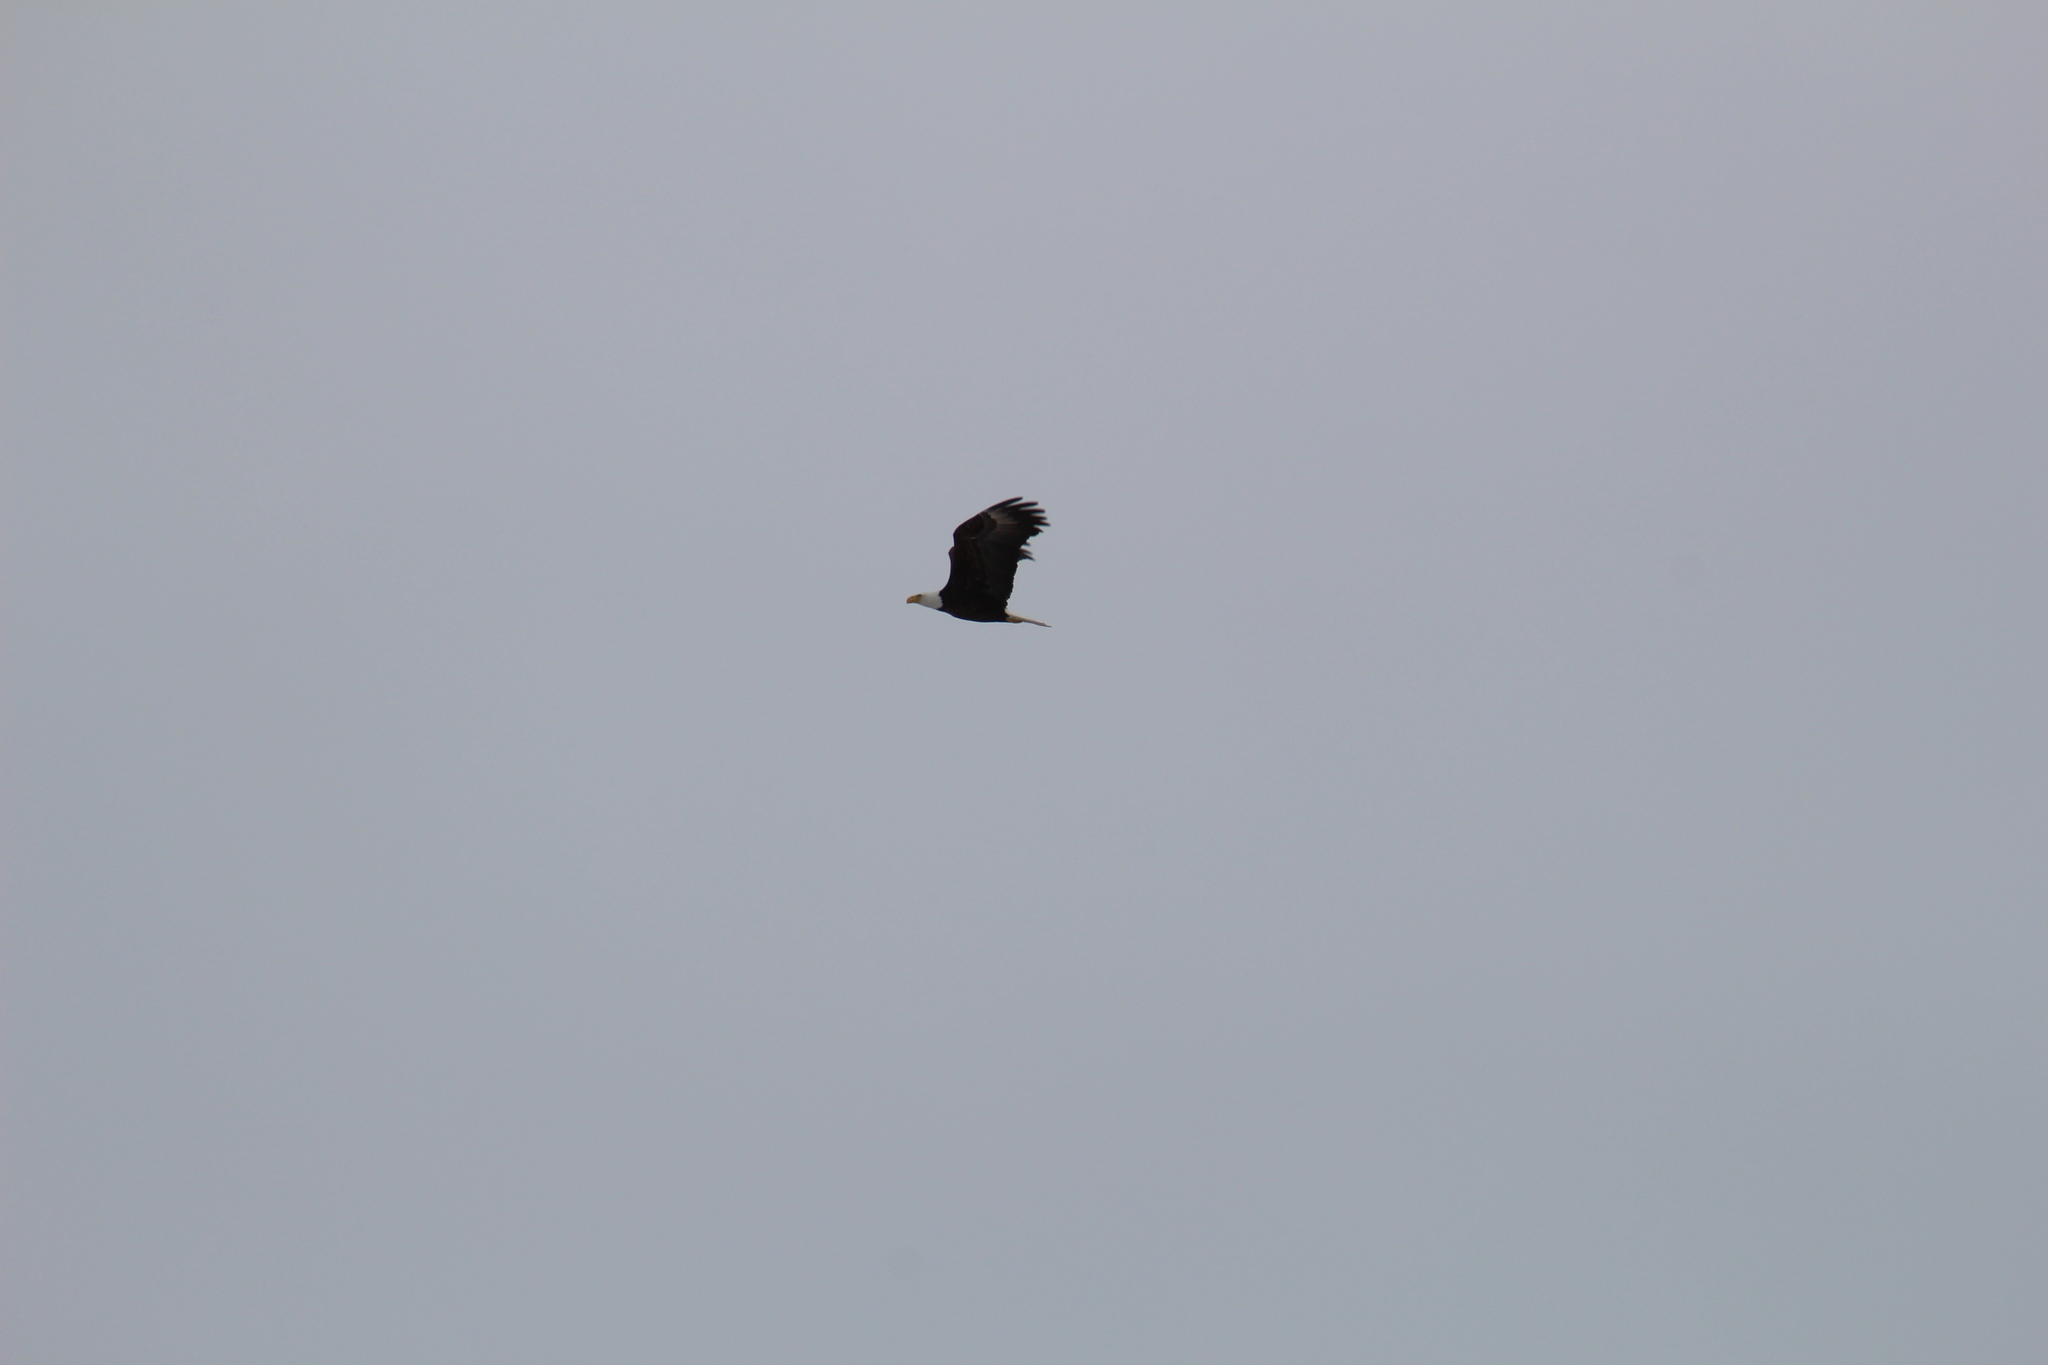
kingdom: Animalia
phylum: Chordata
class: Aves
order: Accipitriformes
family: Accipitridae
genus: Haliaeetus
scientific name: Haliaeetus leucocephalus
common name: Bald eagle
